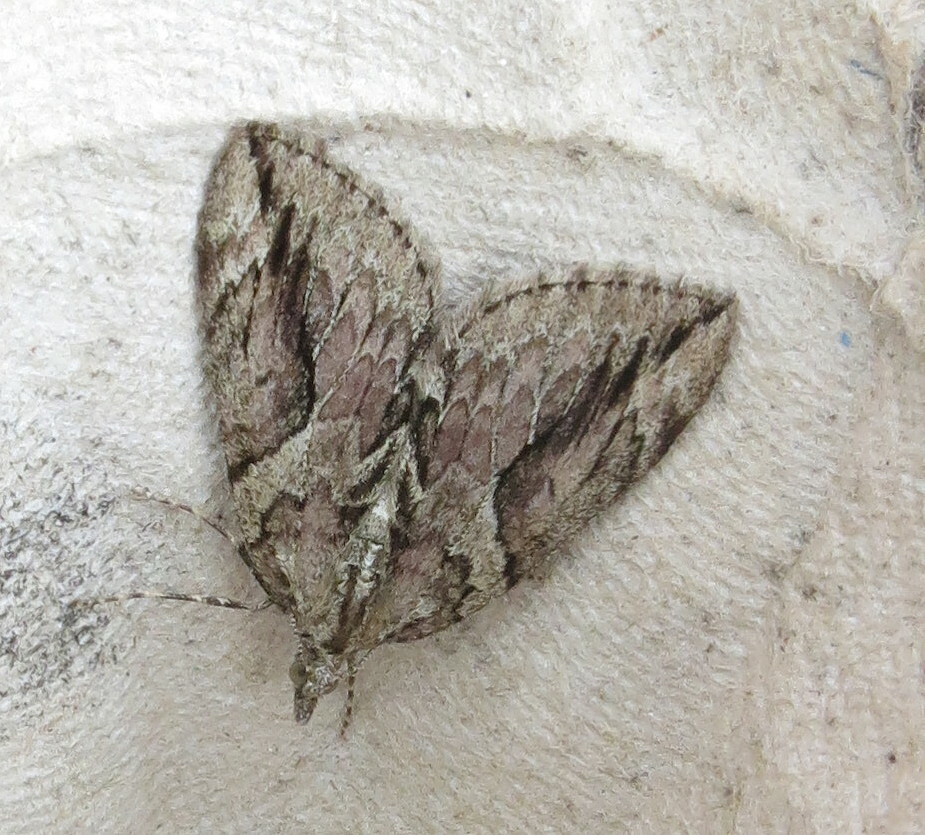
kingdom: Animalia
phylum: Arthropoda
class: Insecta
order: Lepidoptera
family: Geometridae
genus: Thera
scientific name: Thera cupressata
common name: Cypress carpet
